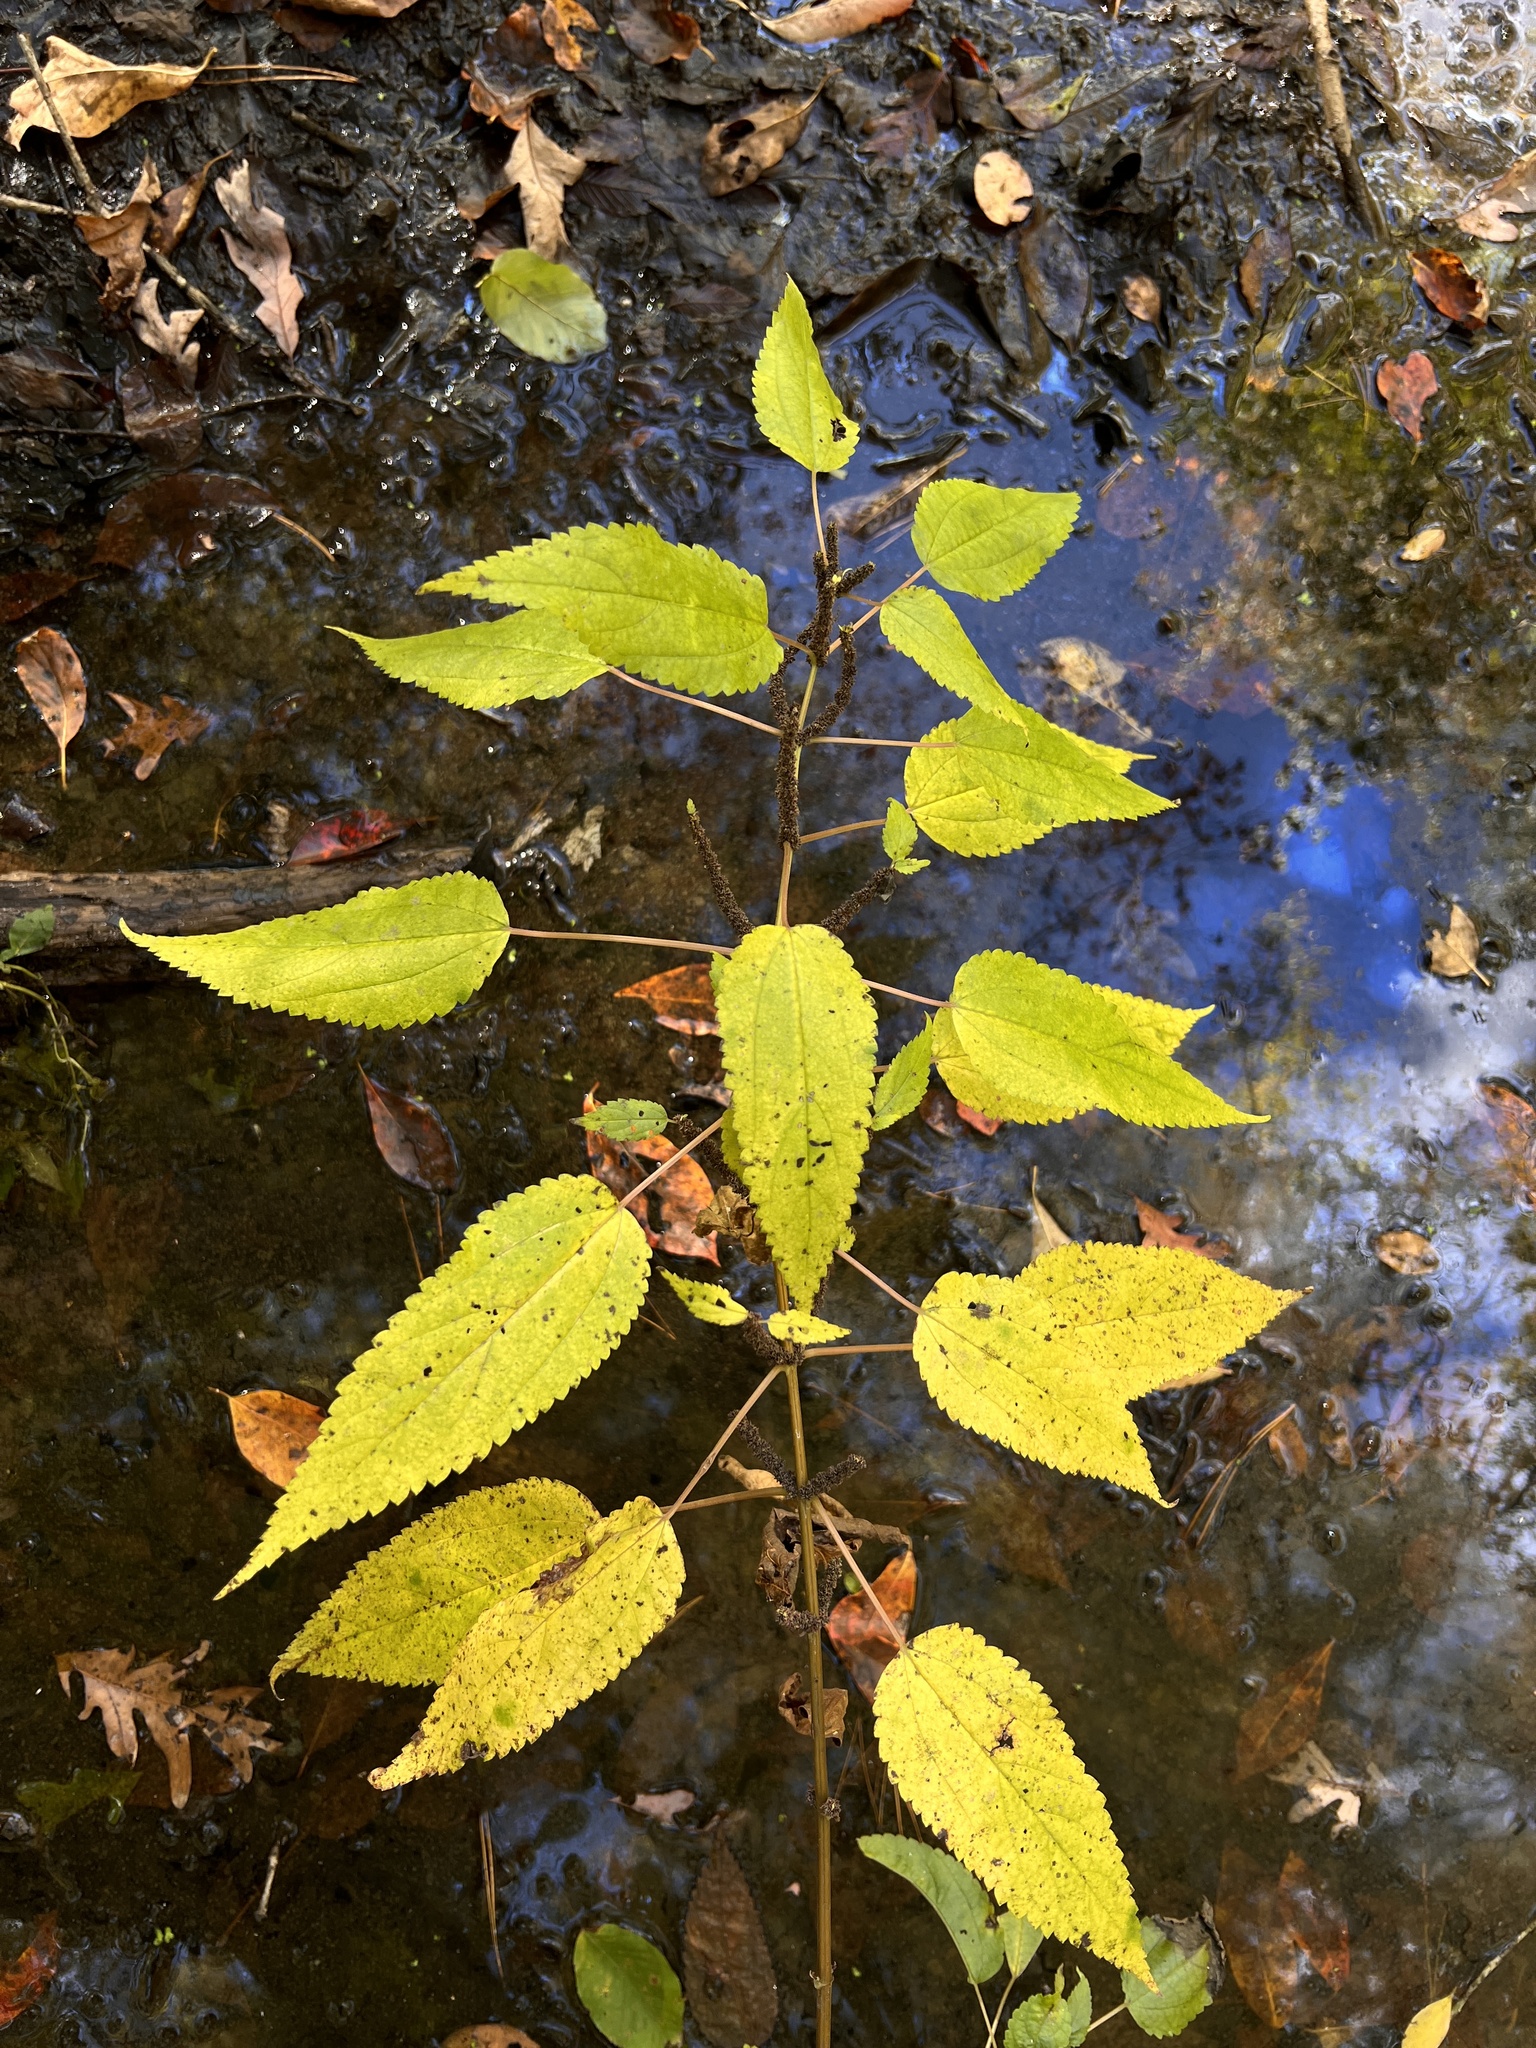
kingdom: Plantae
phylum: Tracheophyta
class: Magnoliopsida
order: Rosales
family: Urticaceae
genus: Boehmeria
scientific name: Boehmeria cylindrica
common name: Bog-hemp
